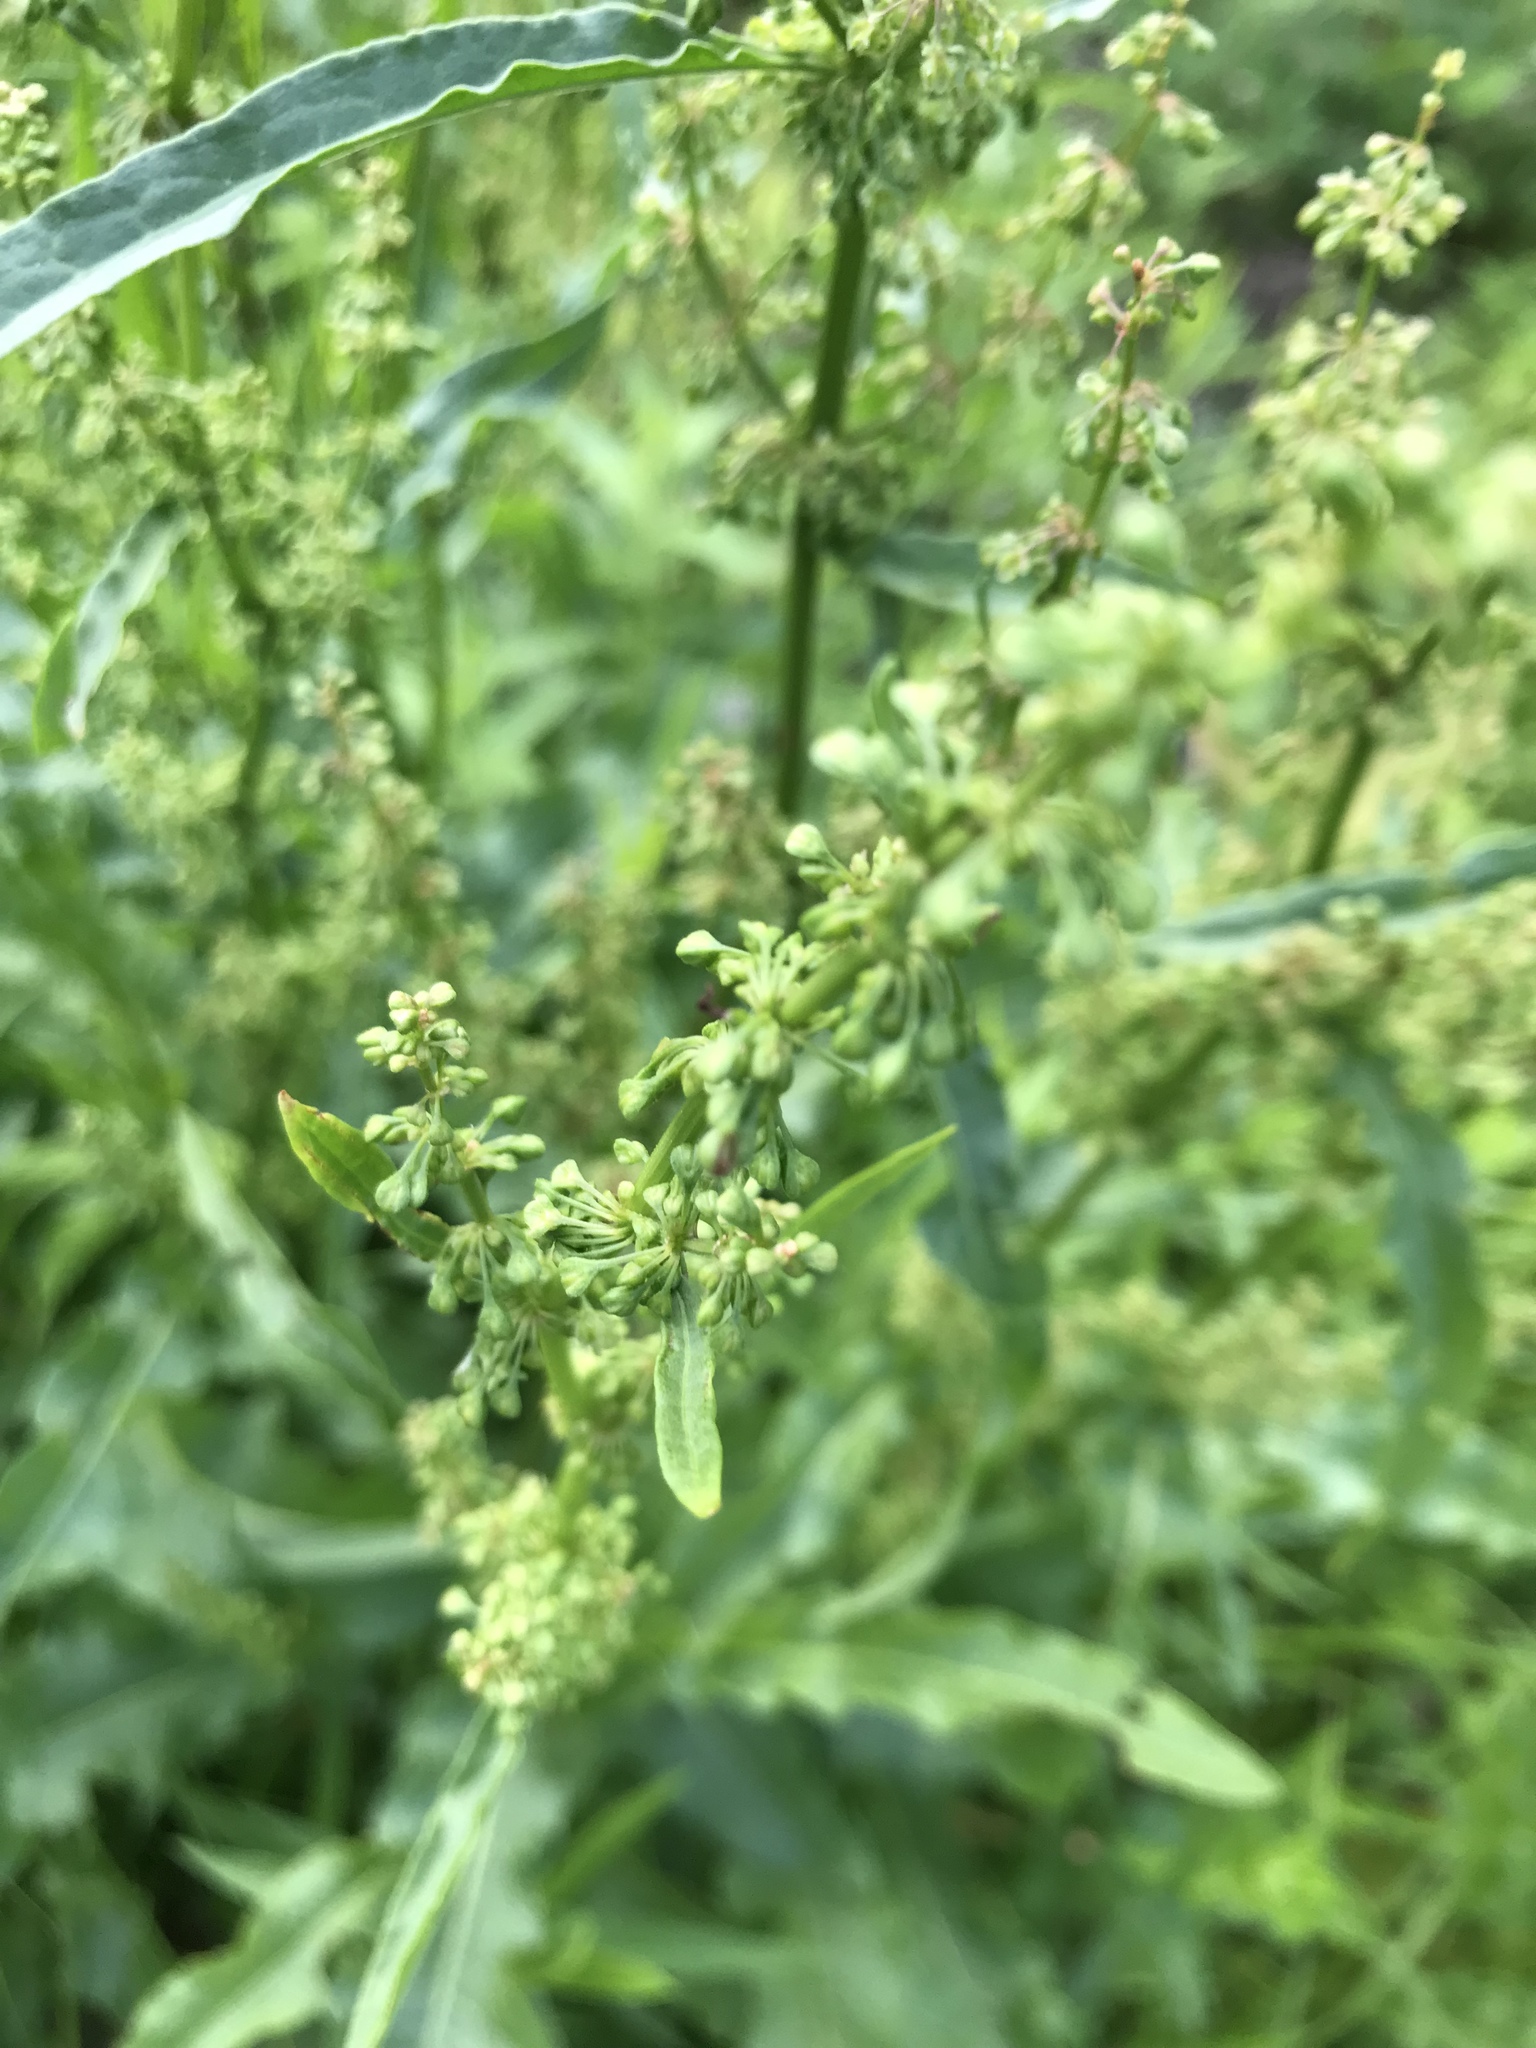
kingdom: Plantae
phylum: Tracheophyta
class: Magnoliopsida
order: Caryophyllales
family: Polygonaceae
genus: Rumex
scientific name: Rumex crispus
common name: Curled dock
